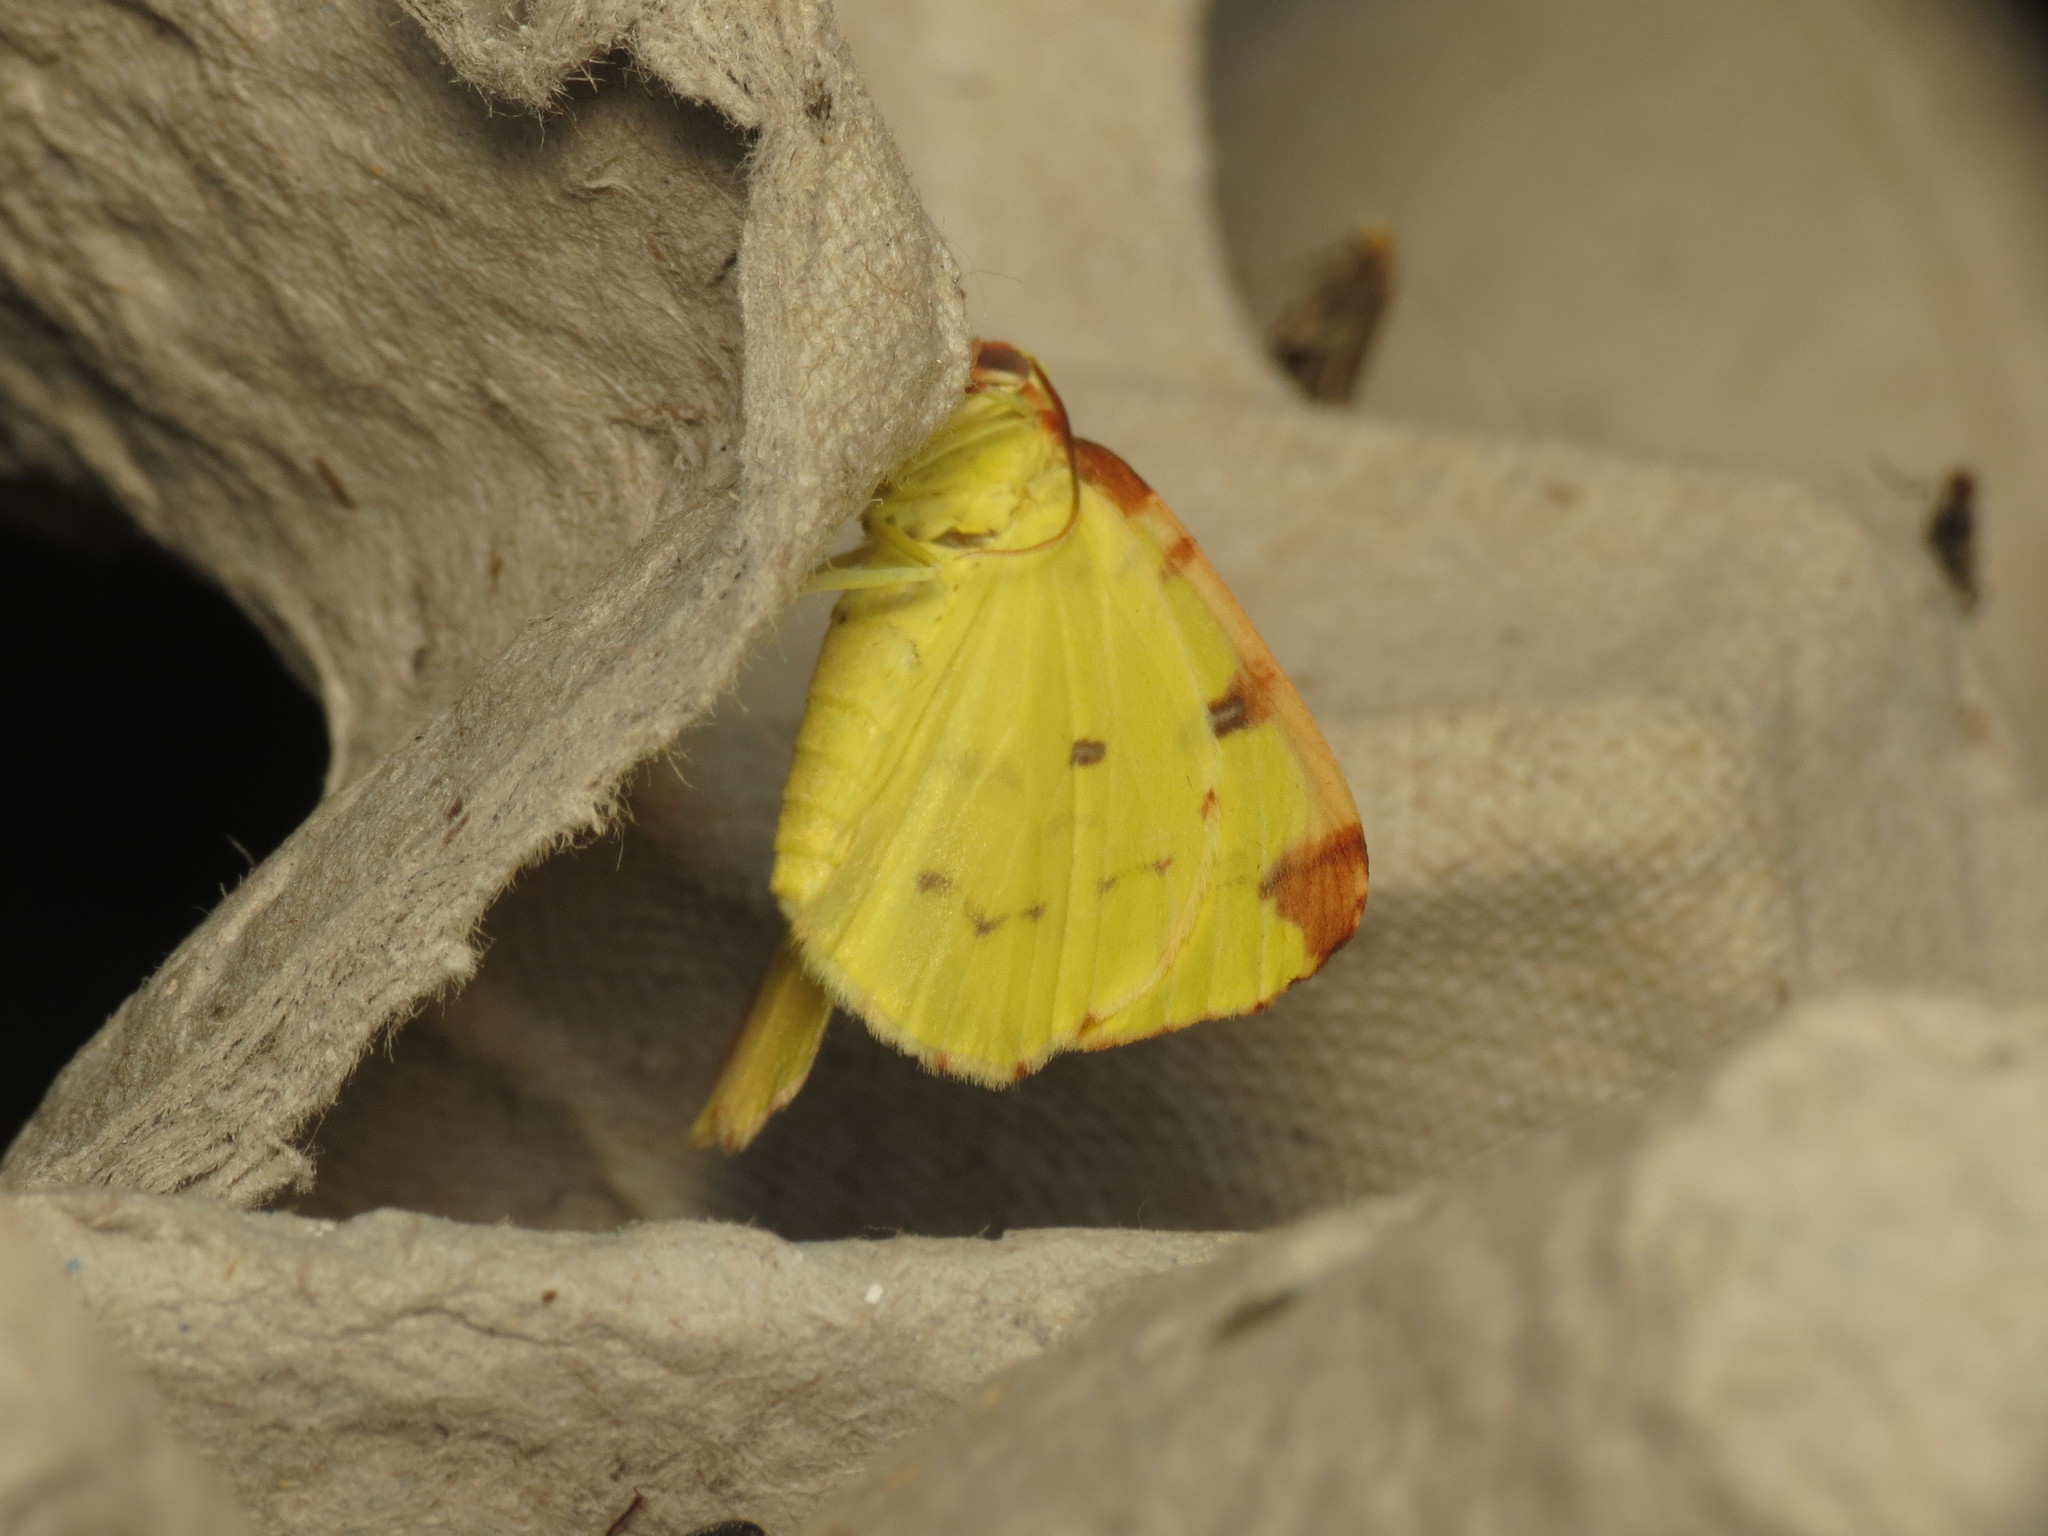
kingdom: Animalia
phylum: Arthropoda
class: Insecta
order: Lepidoptera
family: Geometridae
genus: Opisthograptis
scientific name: Opisthograptis luteolata
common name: Brimstone moth
